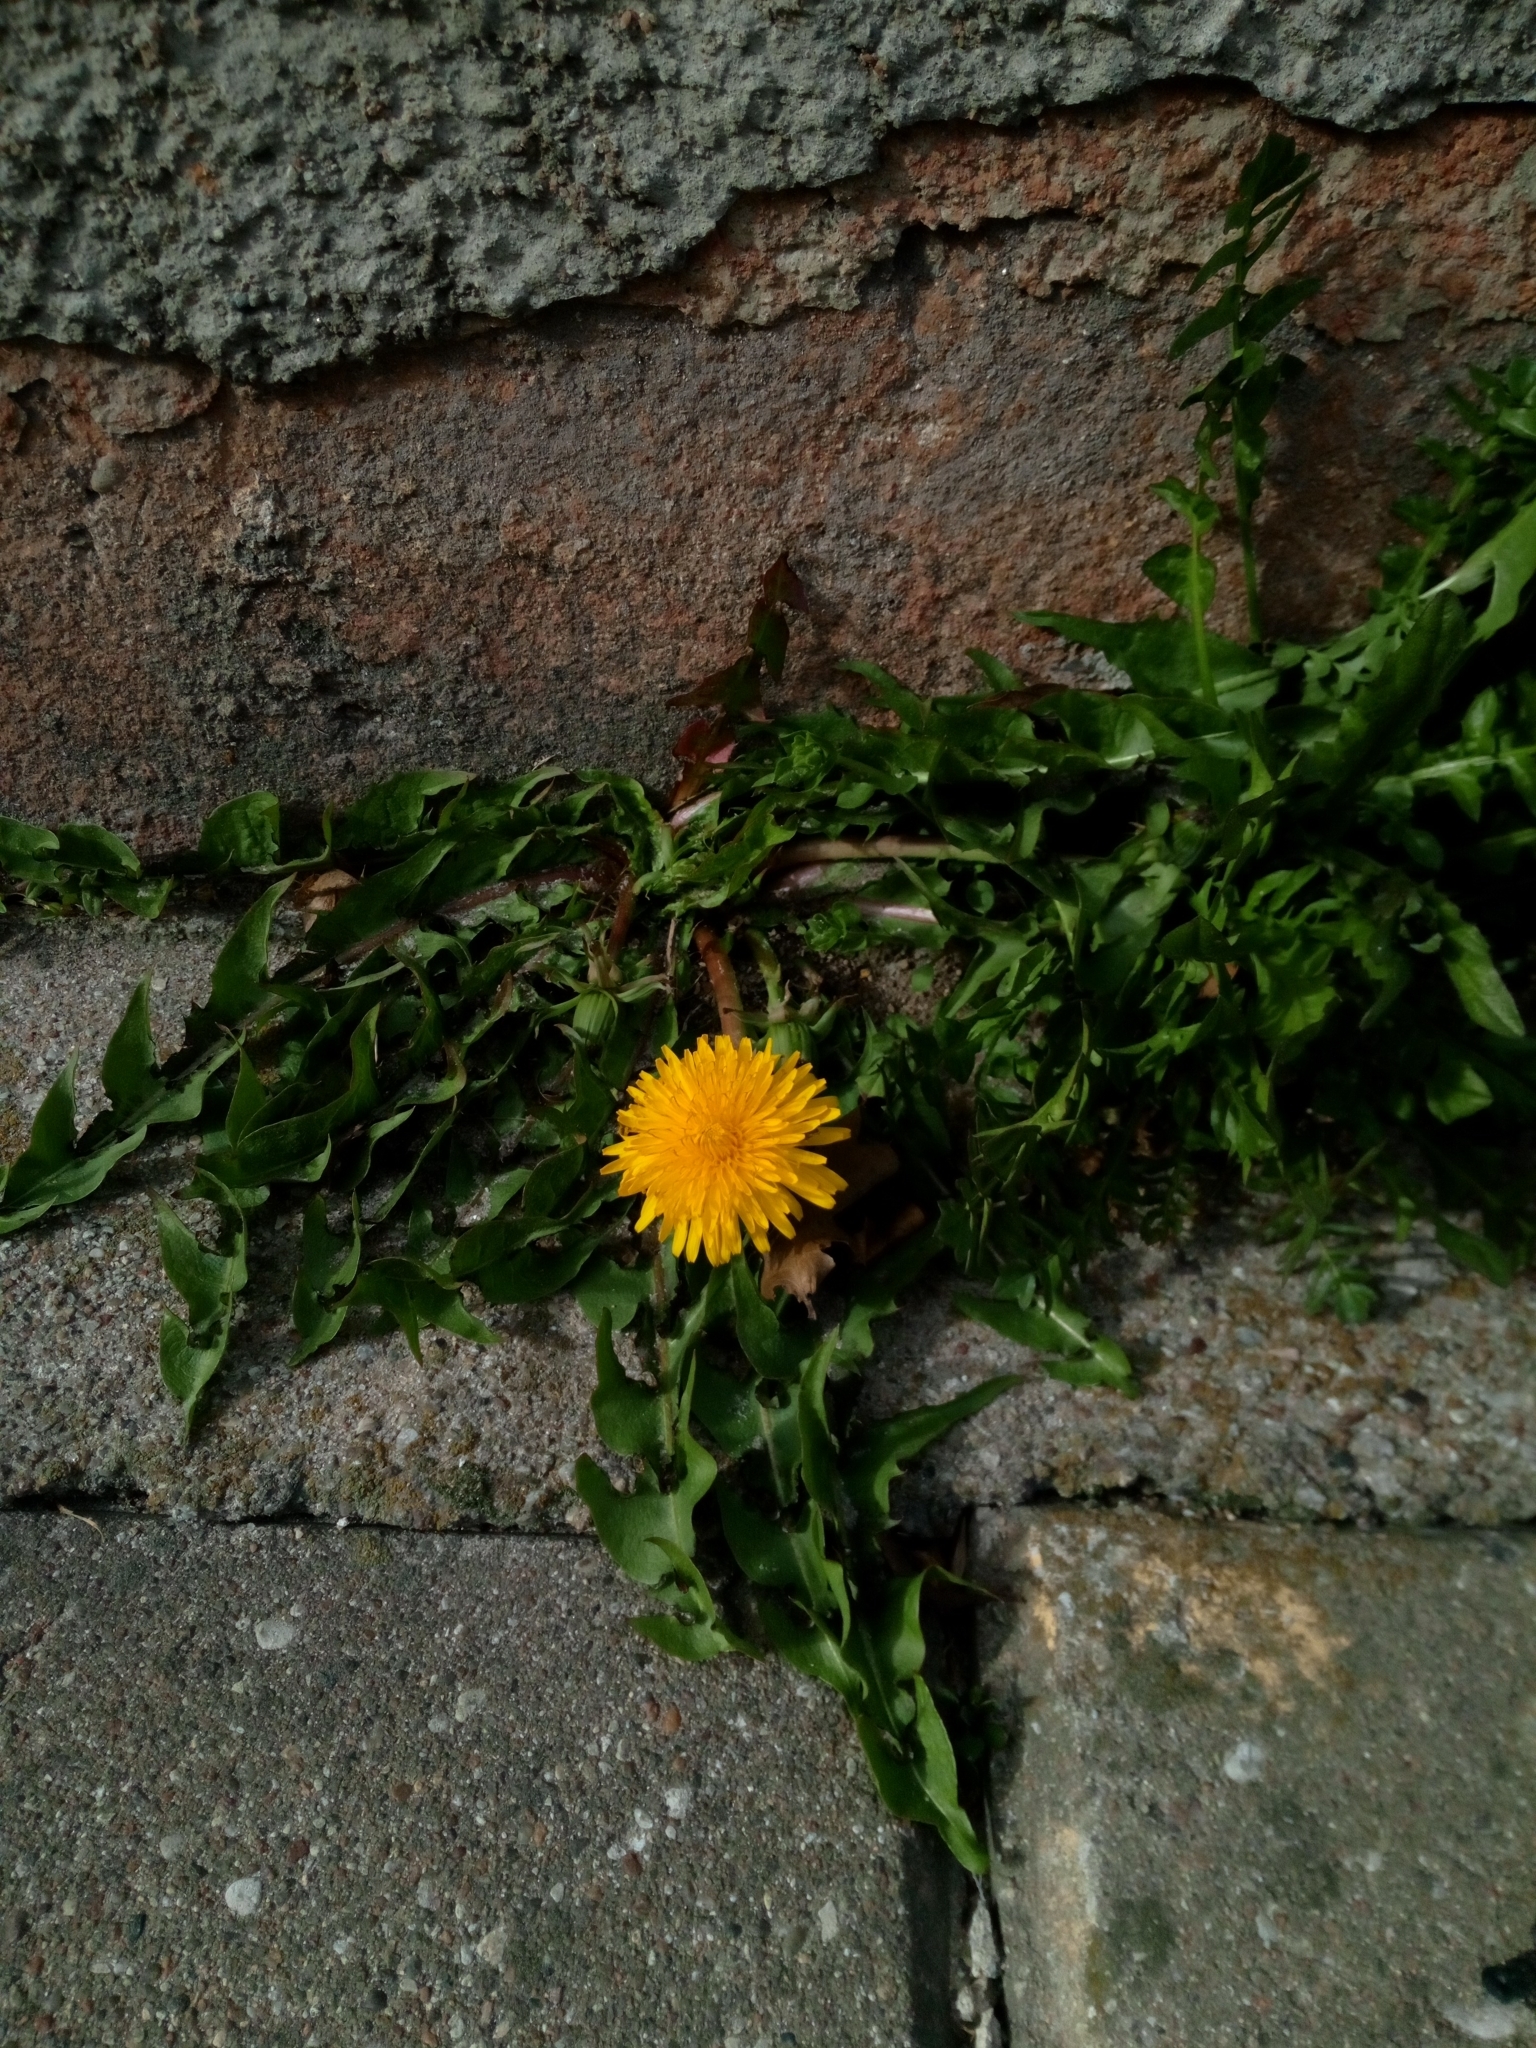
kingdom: Plantae
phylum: Tracheophyta
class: Magnoliopsida
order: Asterales
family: Asteraceae
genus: Taraxacum
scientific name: Taraxacum officinale
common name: Common dandelion
